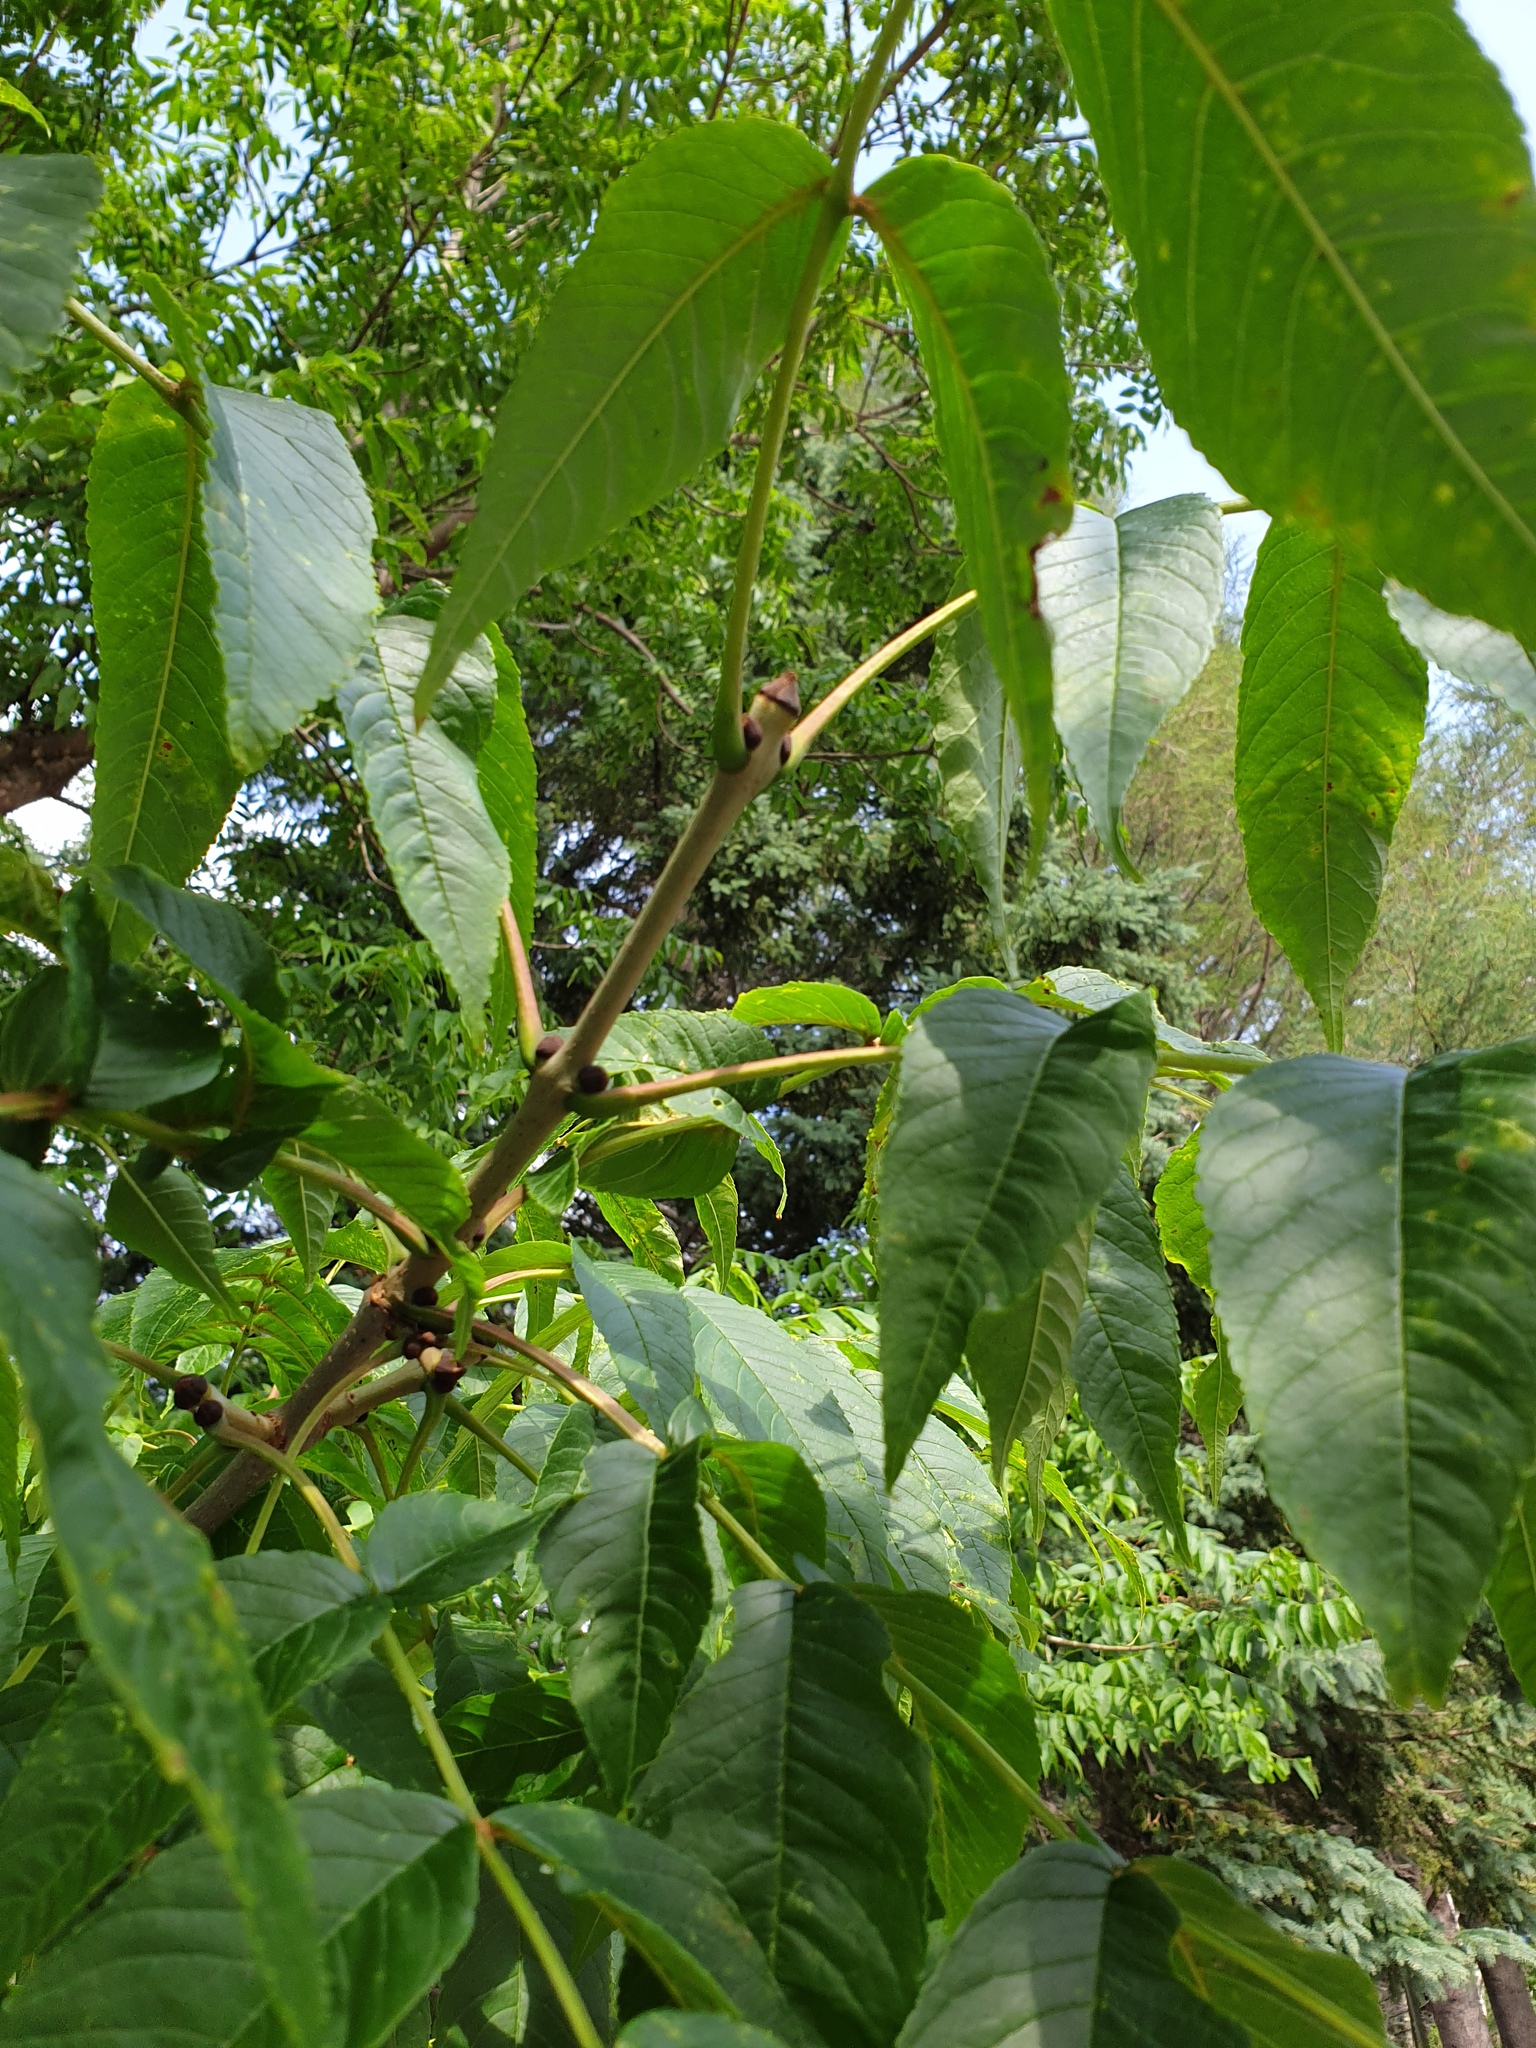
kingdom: Plantae
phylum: Tracheophyta
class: Magnoliopsida
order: Lamiales
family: Oleaceae
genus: Fraxinus
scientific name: Fraxinus nigra
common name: Black ash
